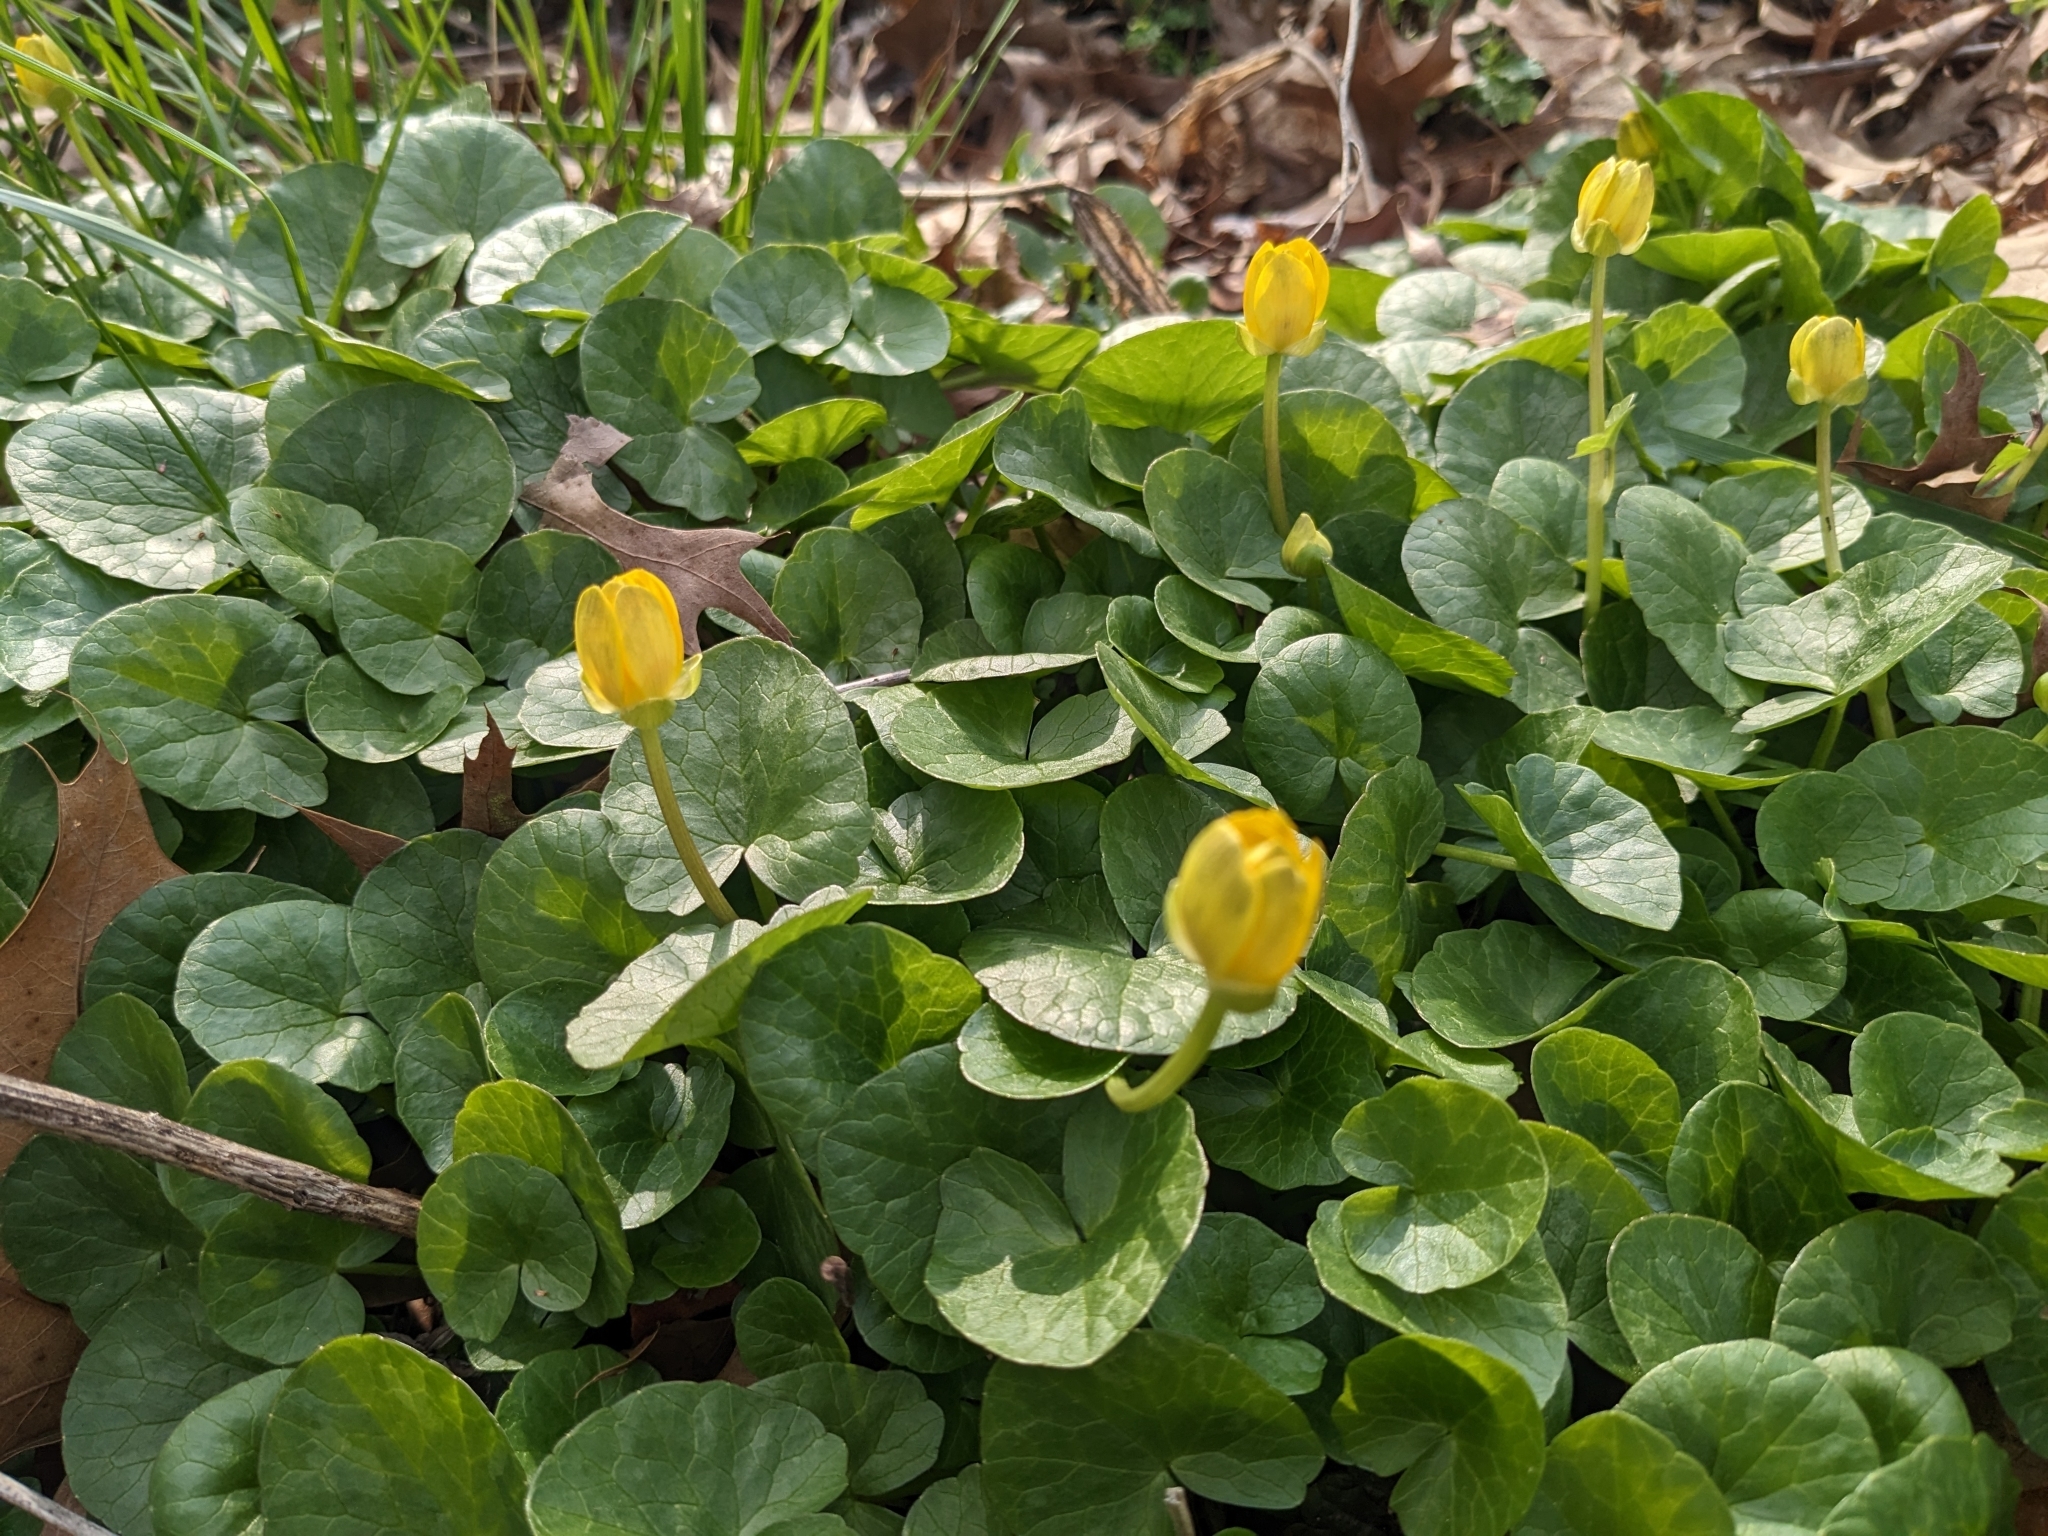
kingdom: Plantae
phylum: Tracheophyta
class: Magnoliopsida
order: Ranunculales
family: Ranunculaceae
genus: Ficaria
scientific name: Ficaria verna
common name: Lesser celandine
